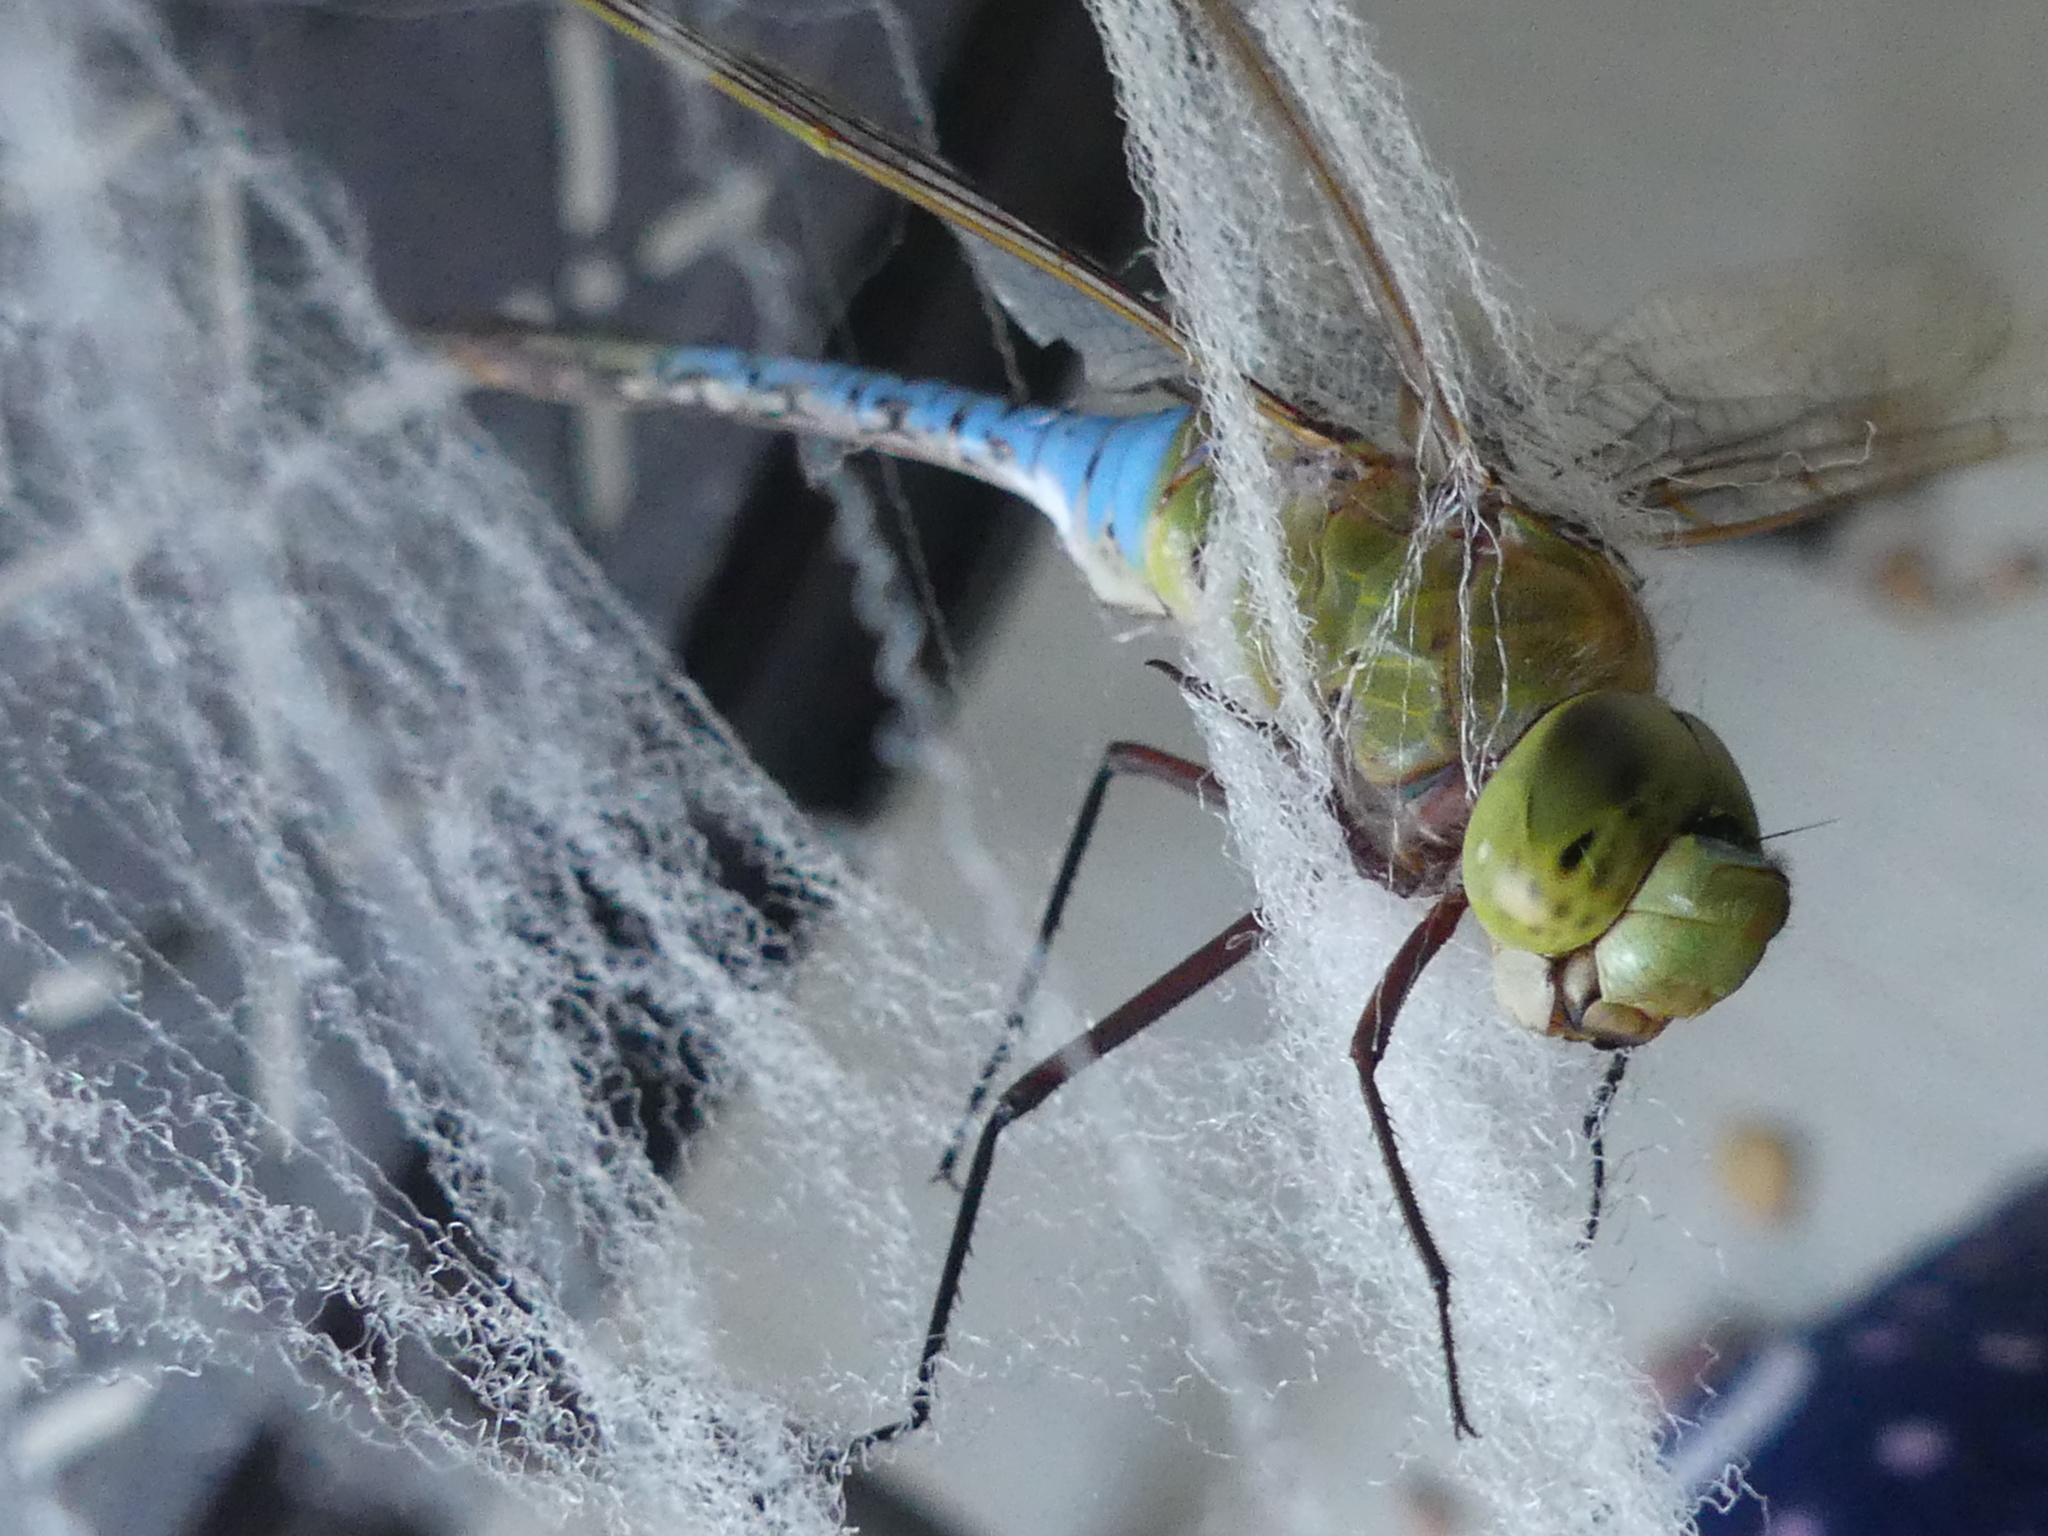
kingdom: Animalia
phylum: Arthropoda
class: Insecta
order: Odonata
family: Aeshnidae
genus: Anax
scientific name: Anax junius
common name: Common green darner
